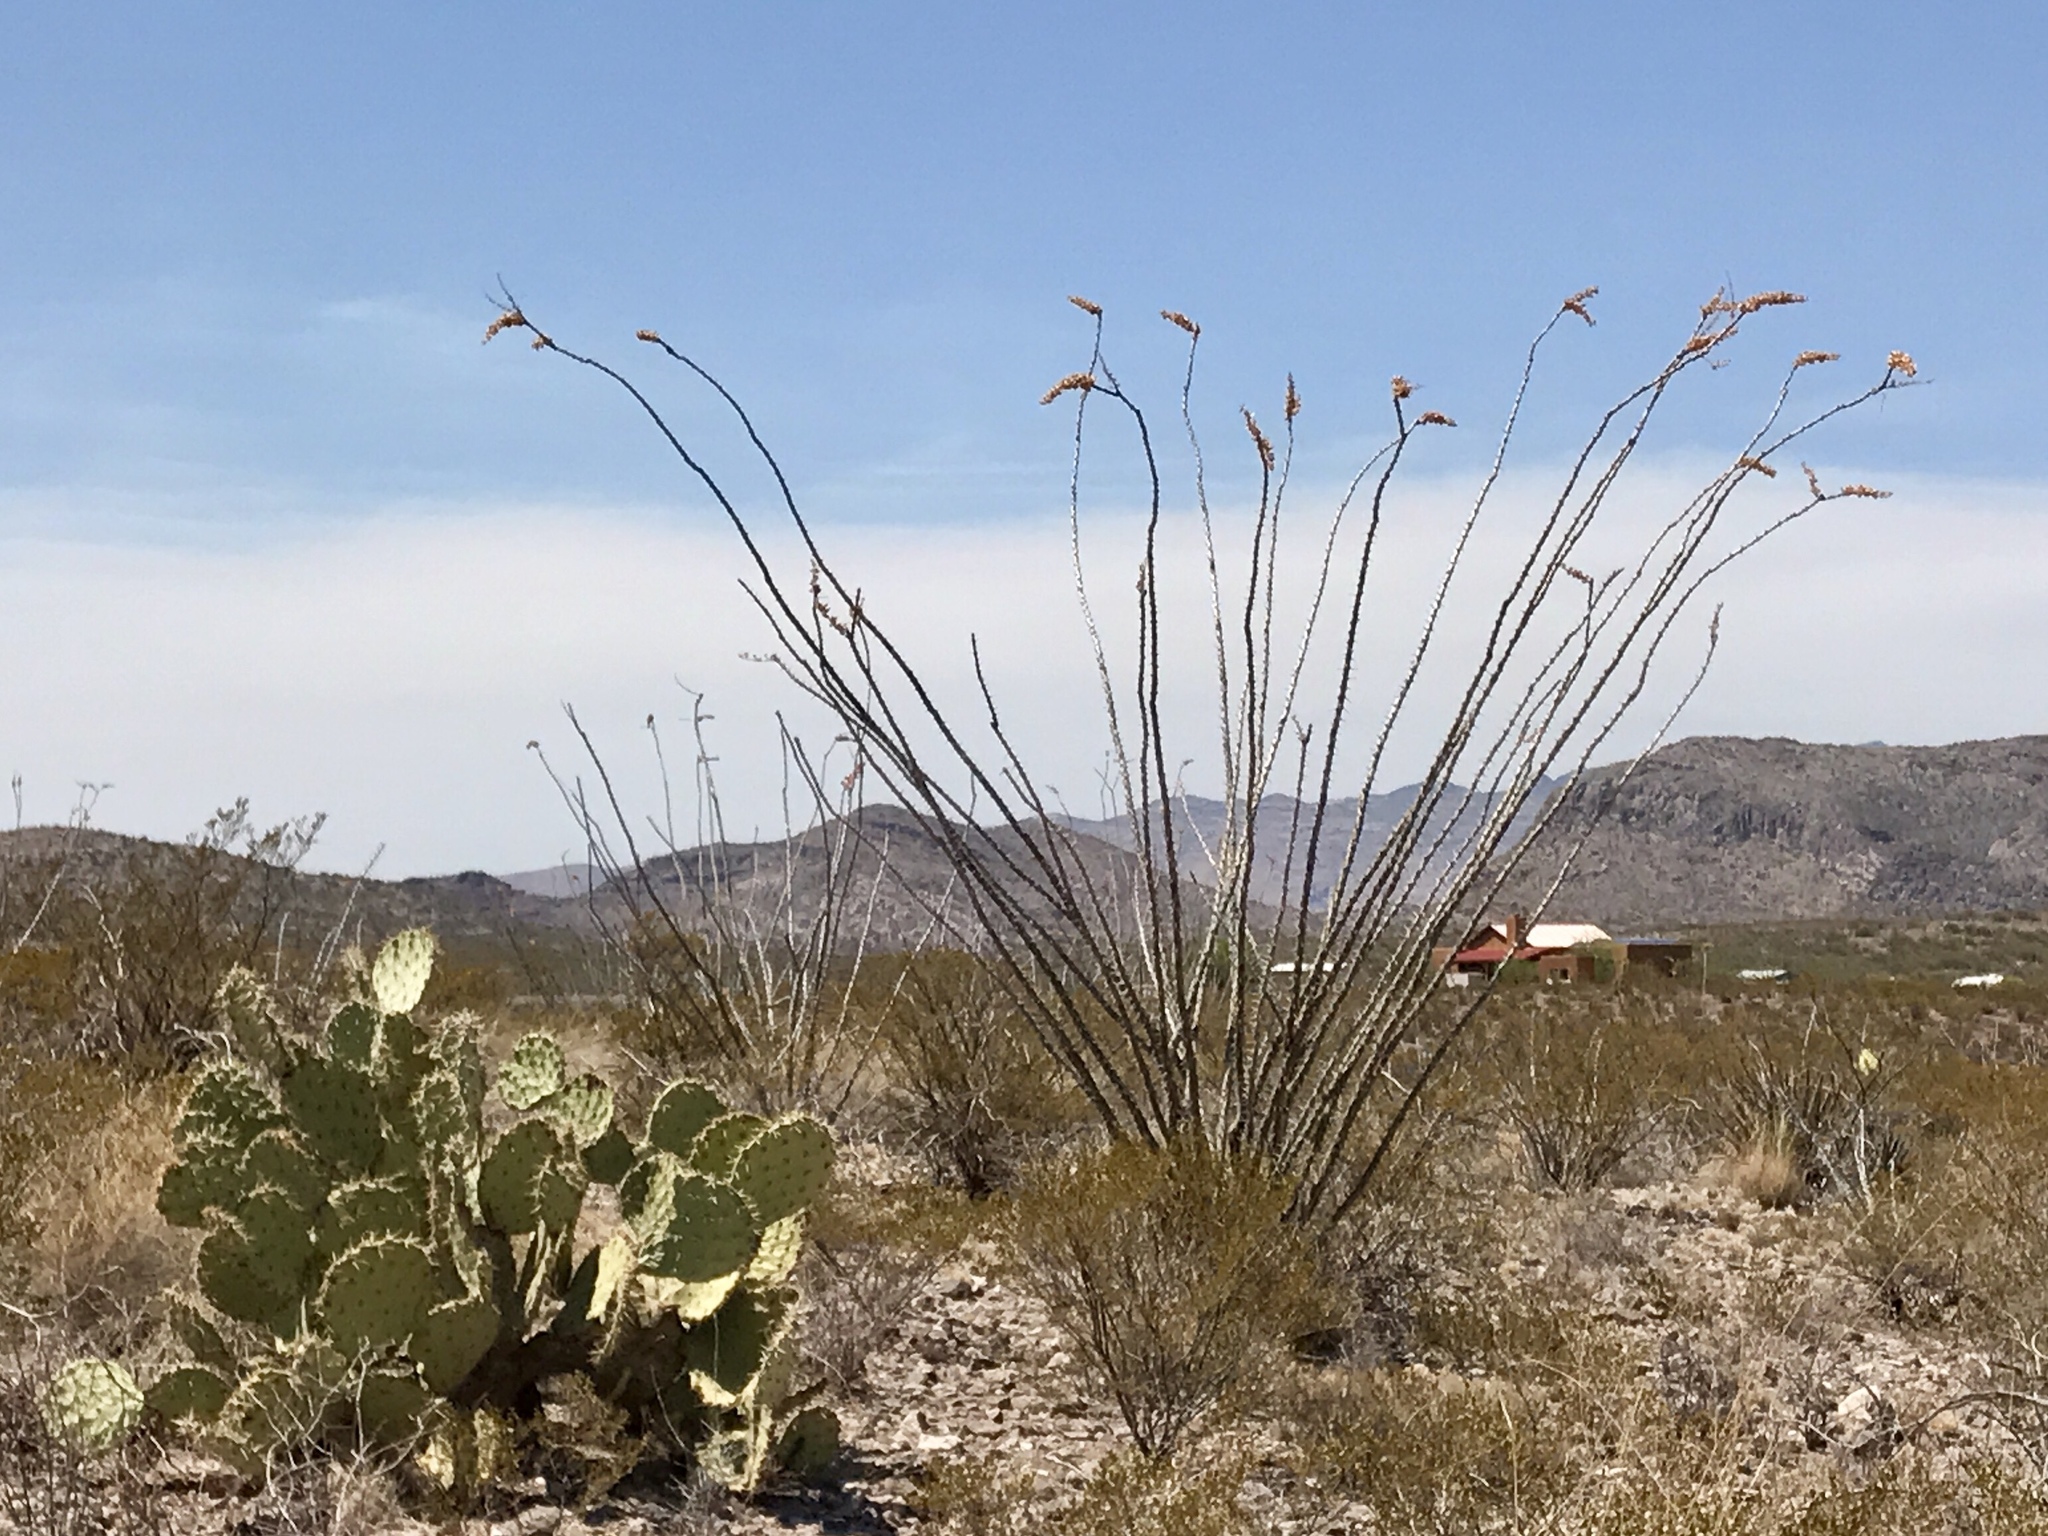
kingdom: Plantae
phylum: Tracheophyta
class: Magnoliopsida
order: Ericales
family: Fouquieriaceae
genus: Fouquieria
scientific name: Fouquieria splendens
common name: Vine-cactus
